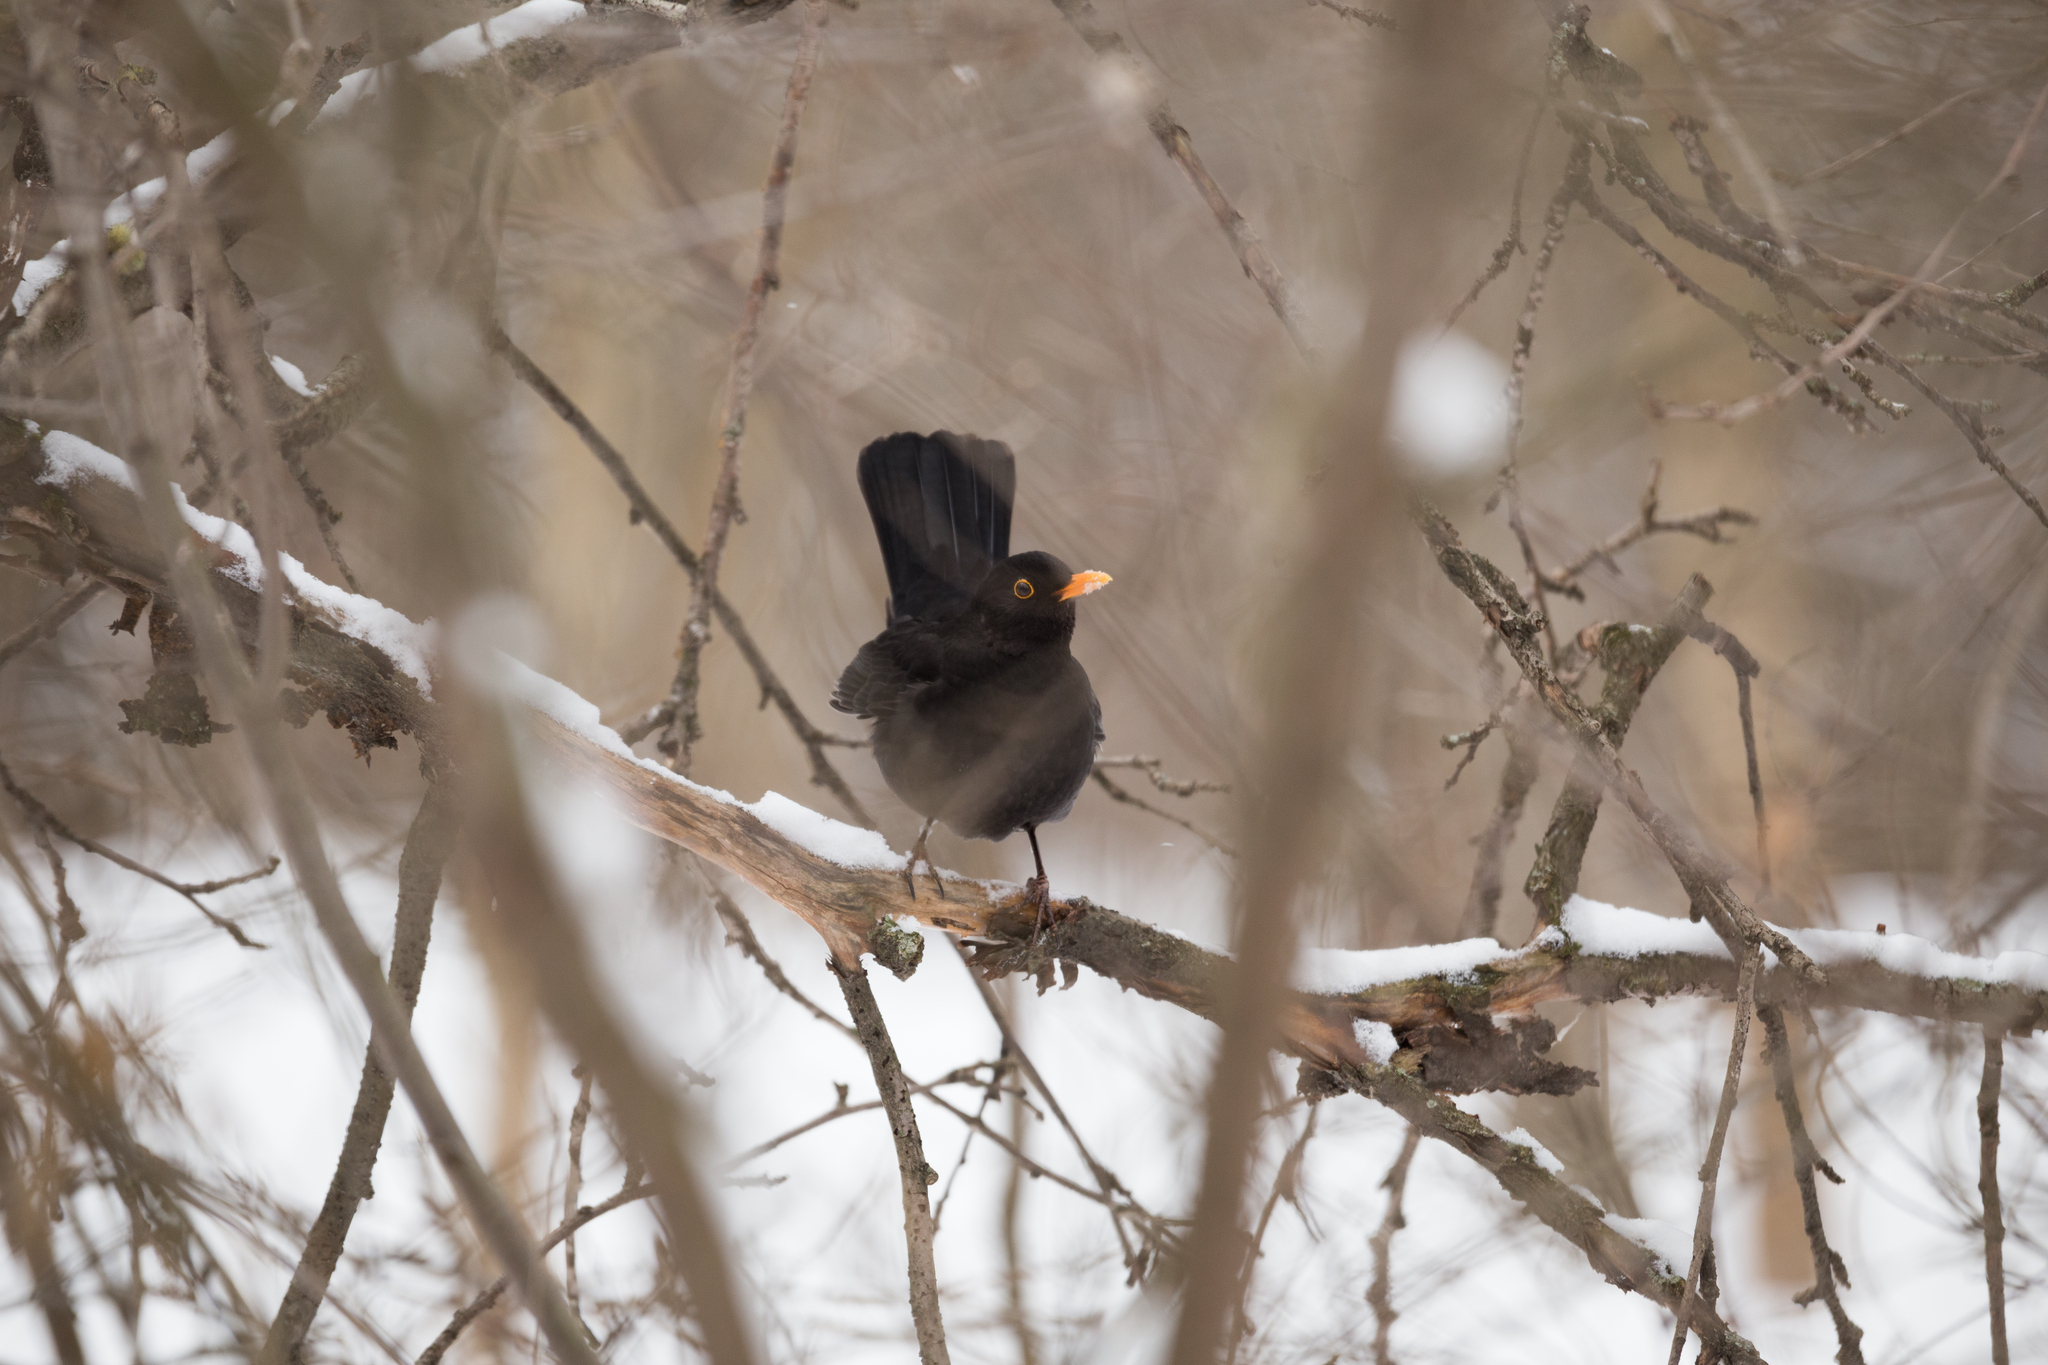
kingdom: Animalia
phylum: Chordata
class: Aves
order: Passeriformes
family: Turdidae
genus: Turdus
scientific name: Turdus merula
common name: Common blackbird
